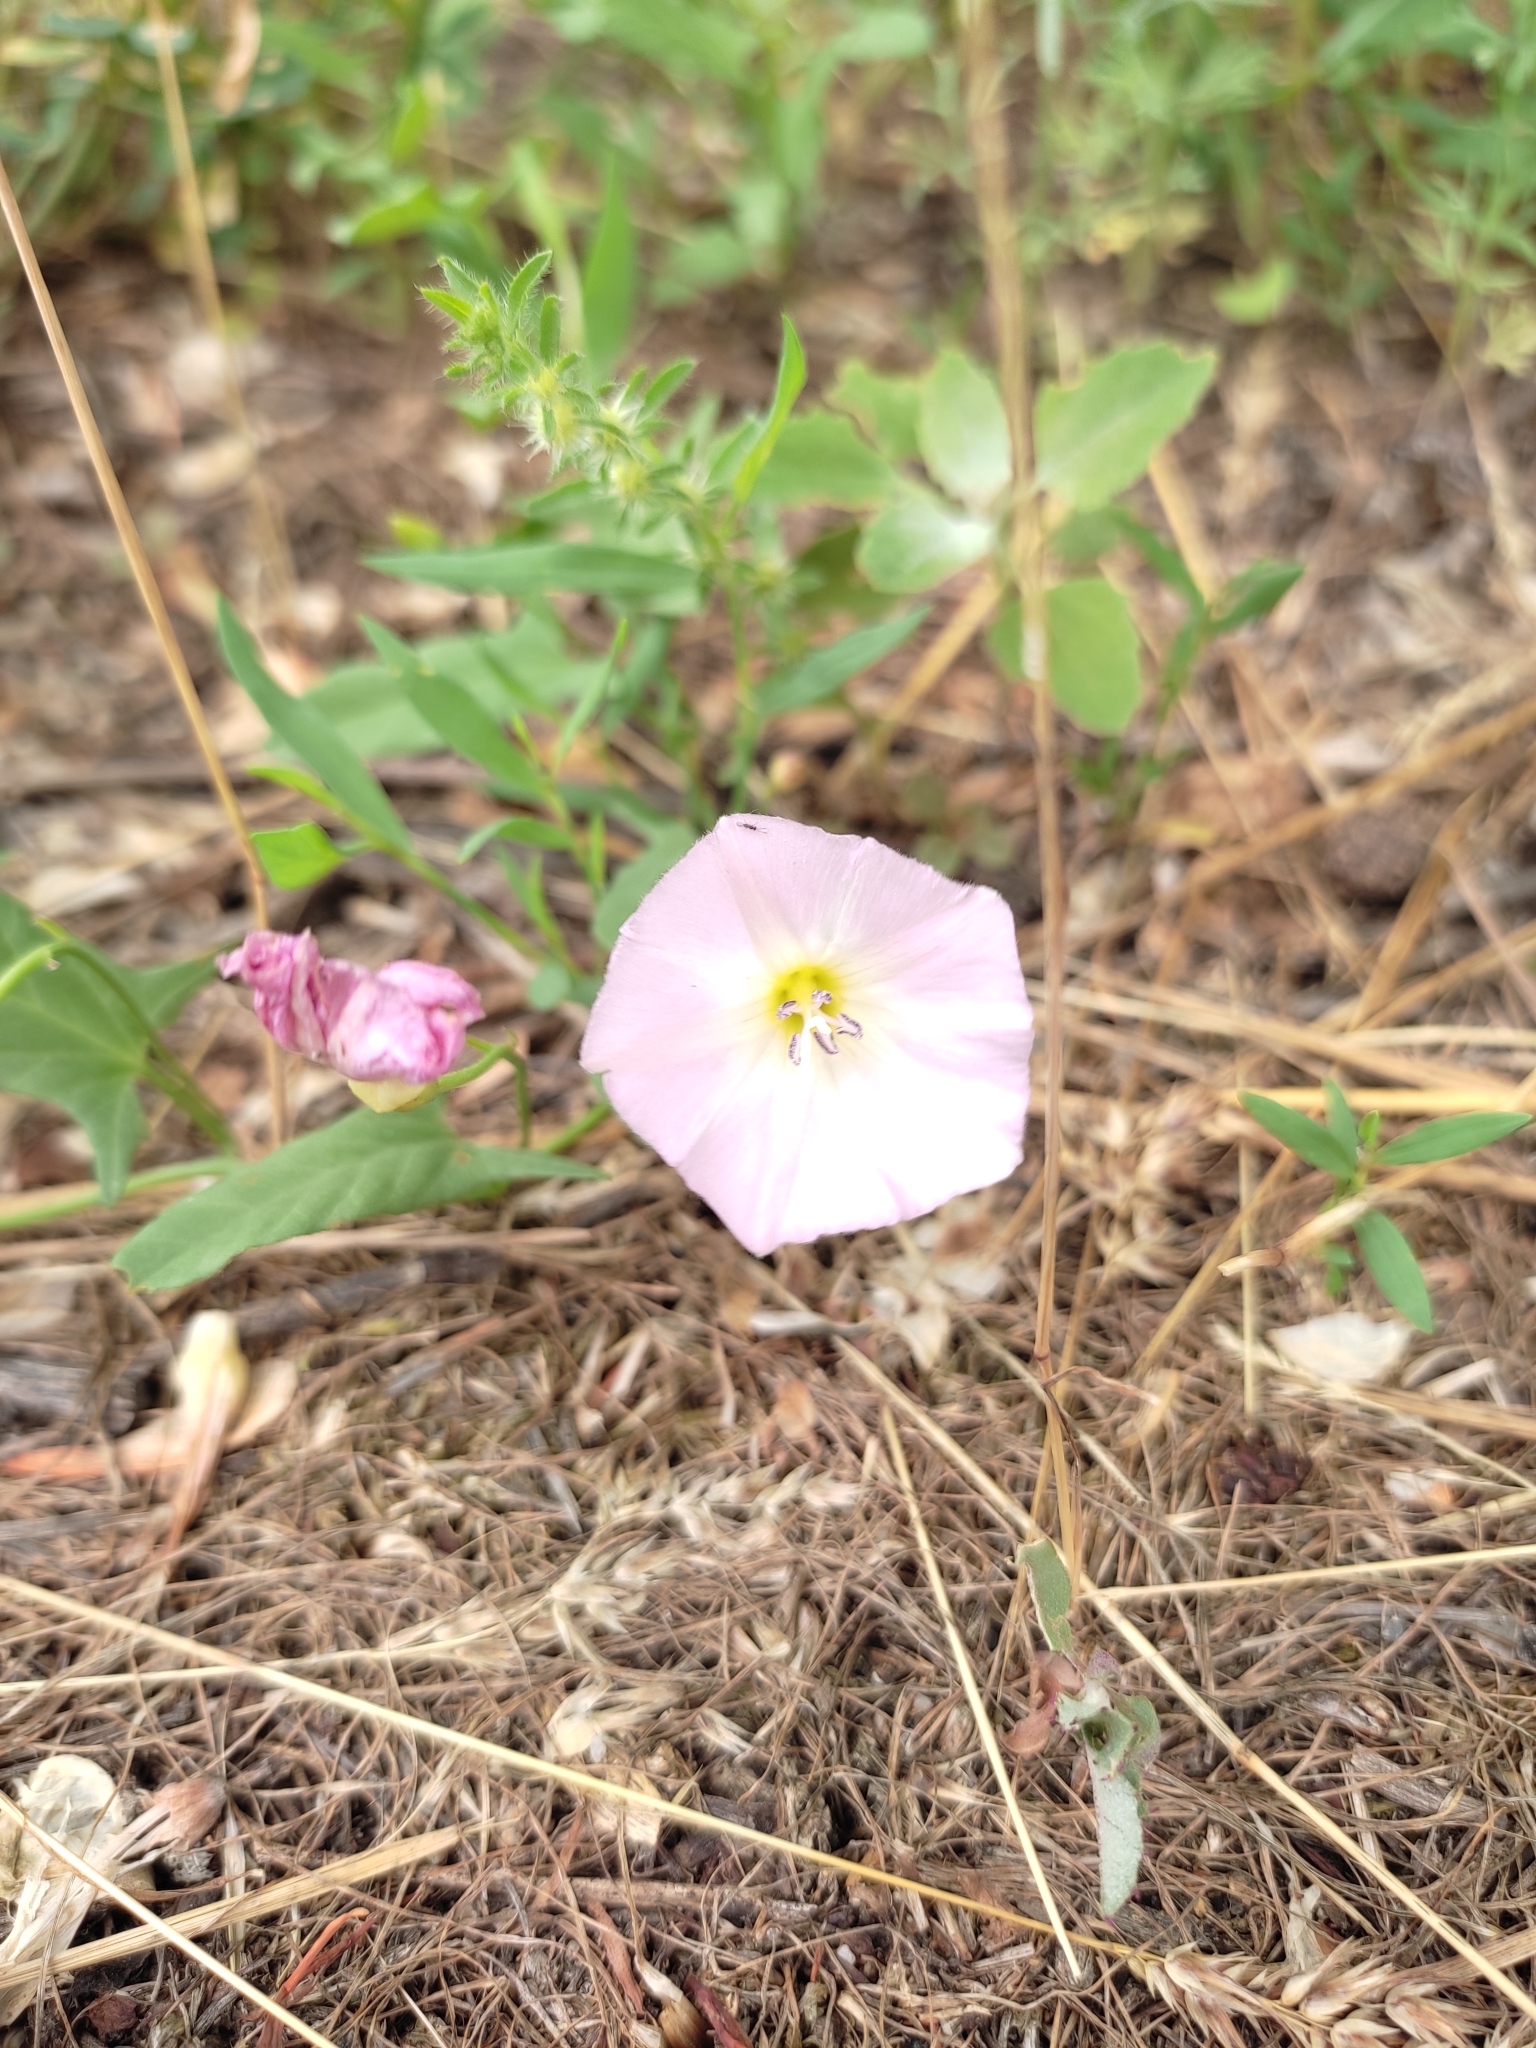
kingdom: Plantae
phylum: Tracheophyta
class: Magnoliopsida
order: Solanales
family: Convolvulaceae
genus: Convolvulus
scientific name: Convolvulus arvensis
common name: Field bindweed
